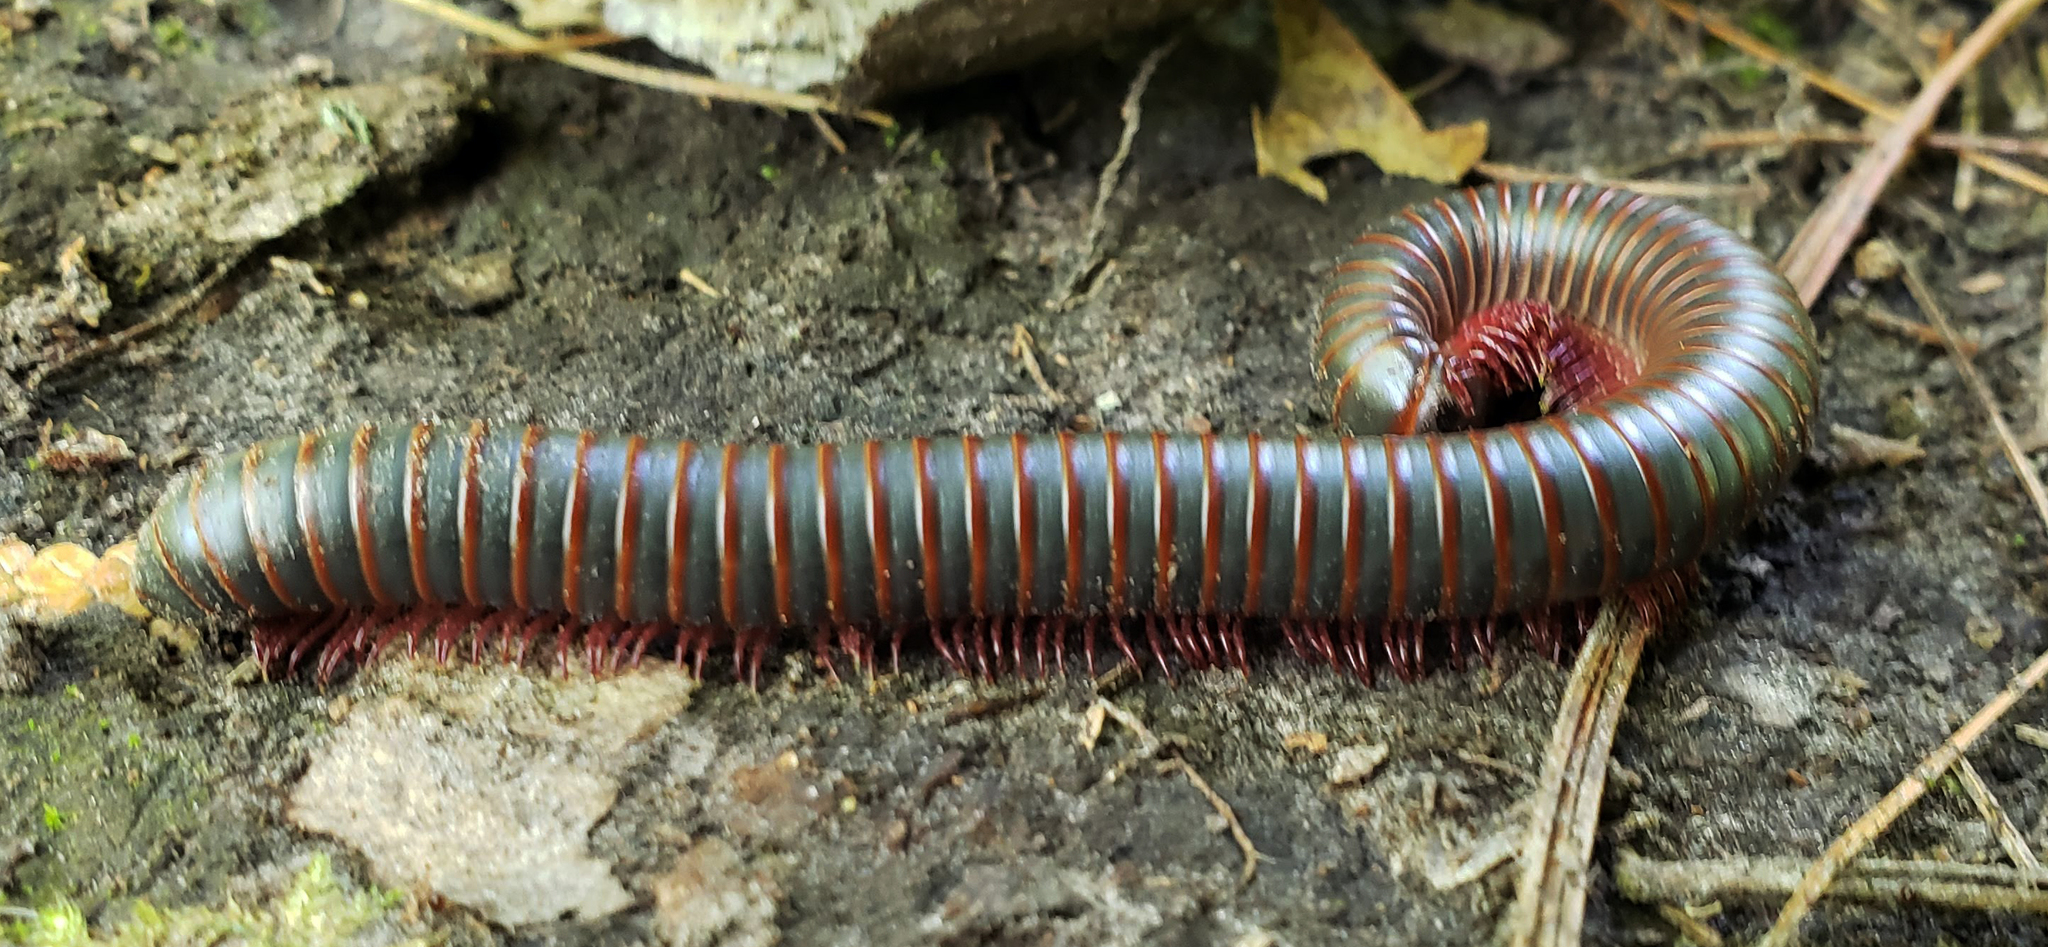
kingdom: Animalia
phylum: Arthropoda
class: Diplopoda
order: Spirobolida
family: Spirobolidae
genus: Narceus
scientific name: Narceus
